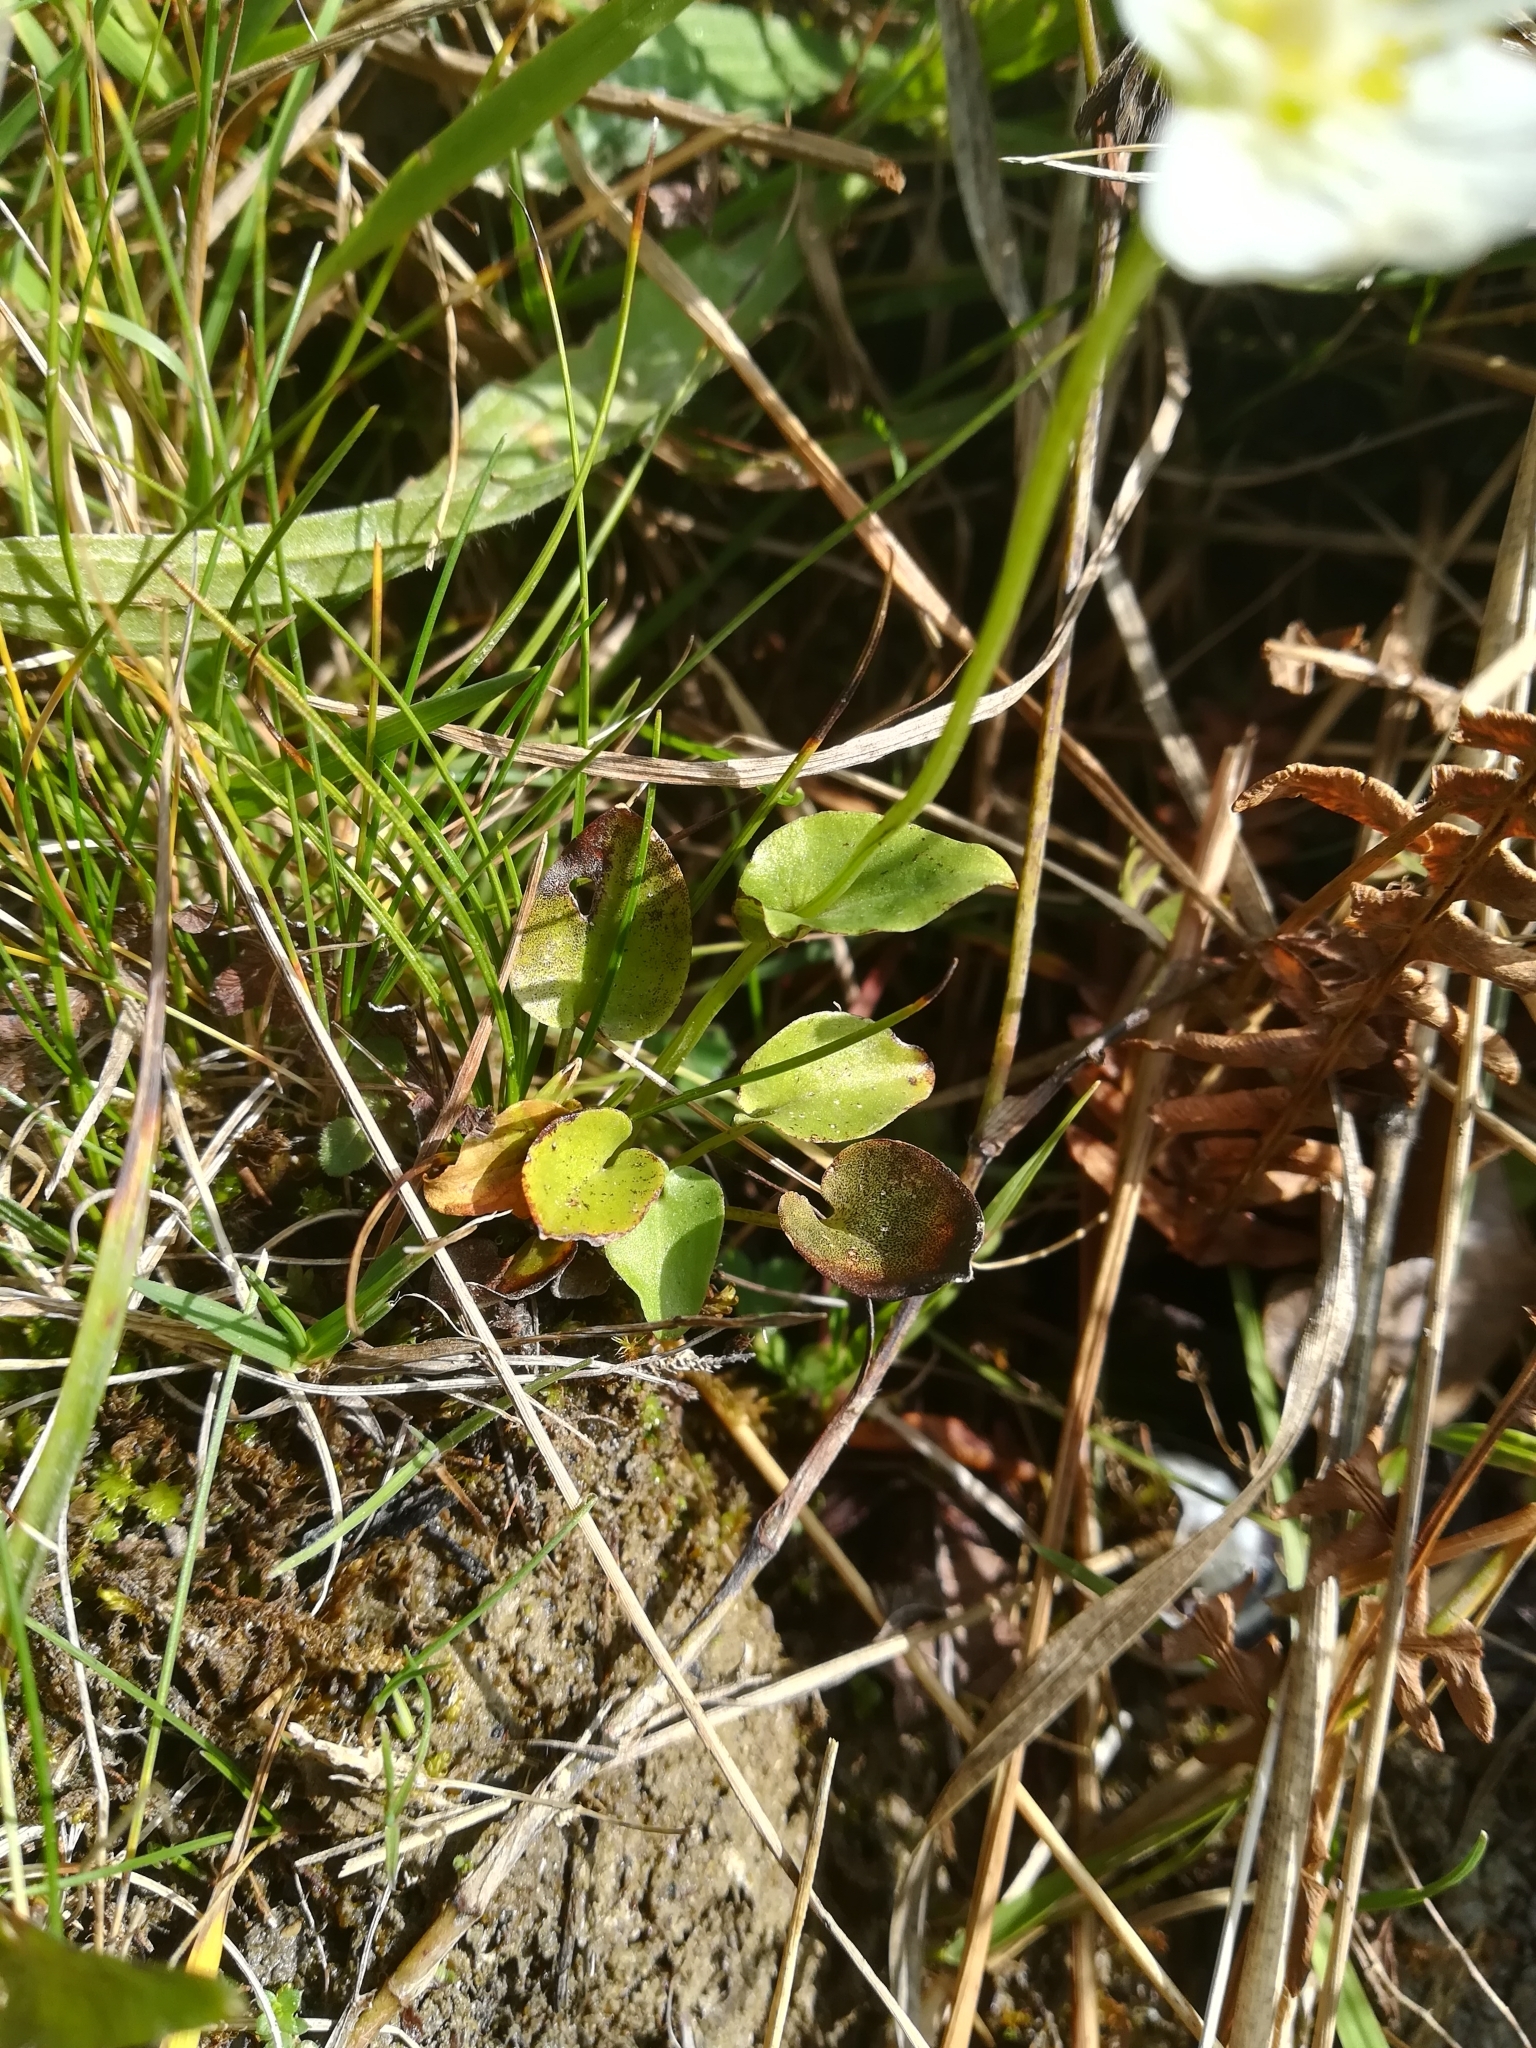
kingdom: Plantae
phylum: Tracheophyta
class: Magnoliopsida
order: Celastrales
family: Parnassiaceae
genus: Parnassia
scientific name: Parnassia palustris
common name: Grass-of-parnassus
